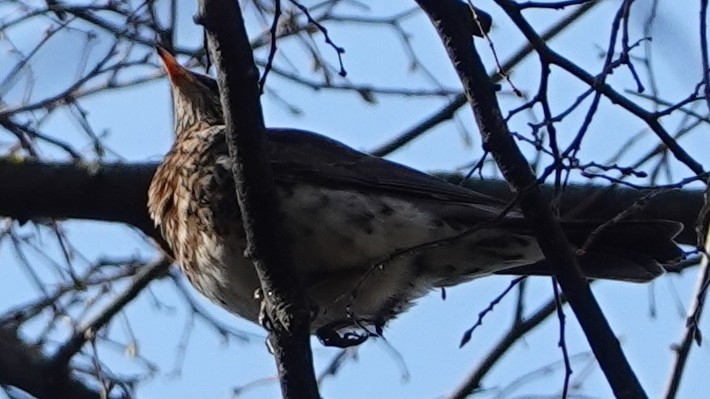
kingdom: Animalia
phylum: Chordata
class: Aves
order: Passeriformes
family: Turdidae
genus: Turdus
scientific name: Turdus pilaris
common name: Fieldfare
